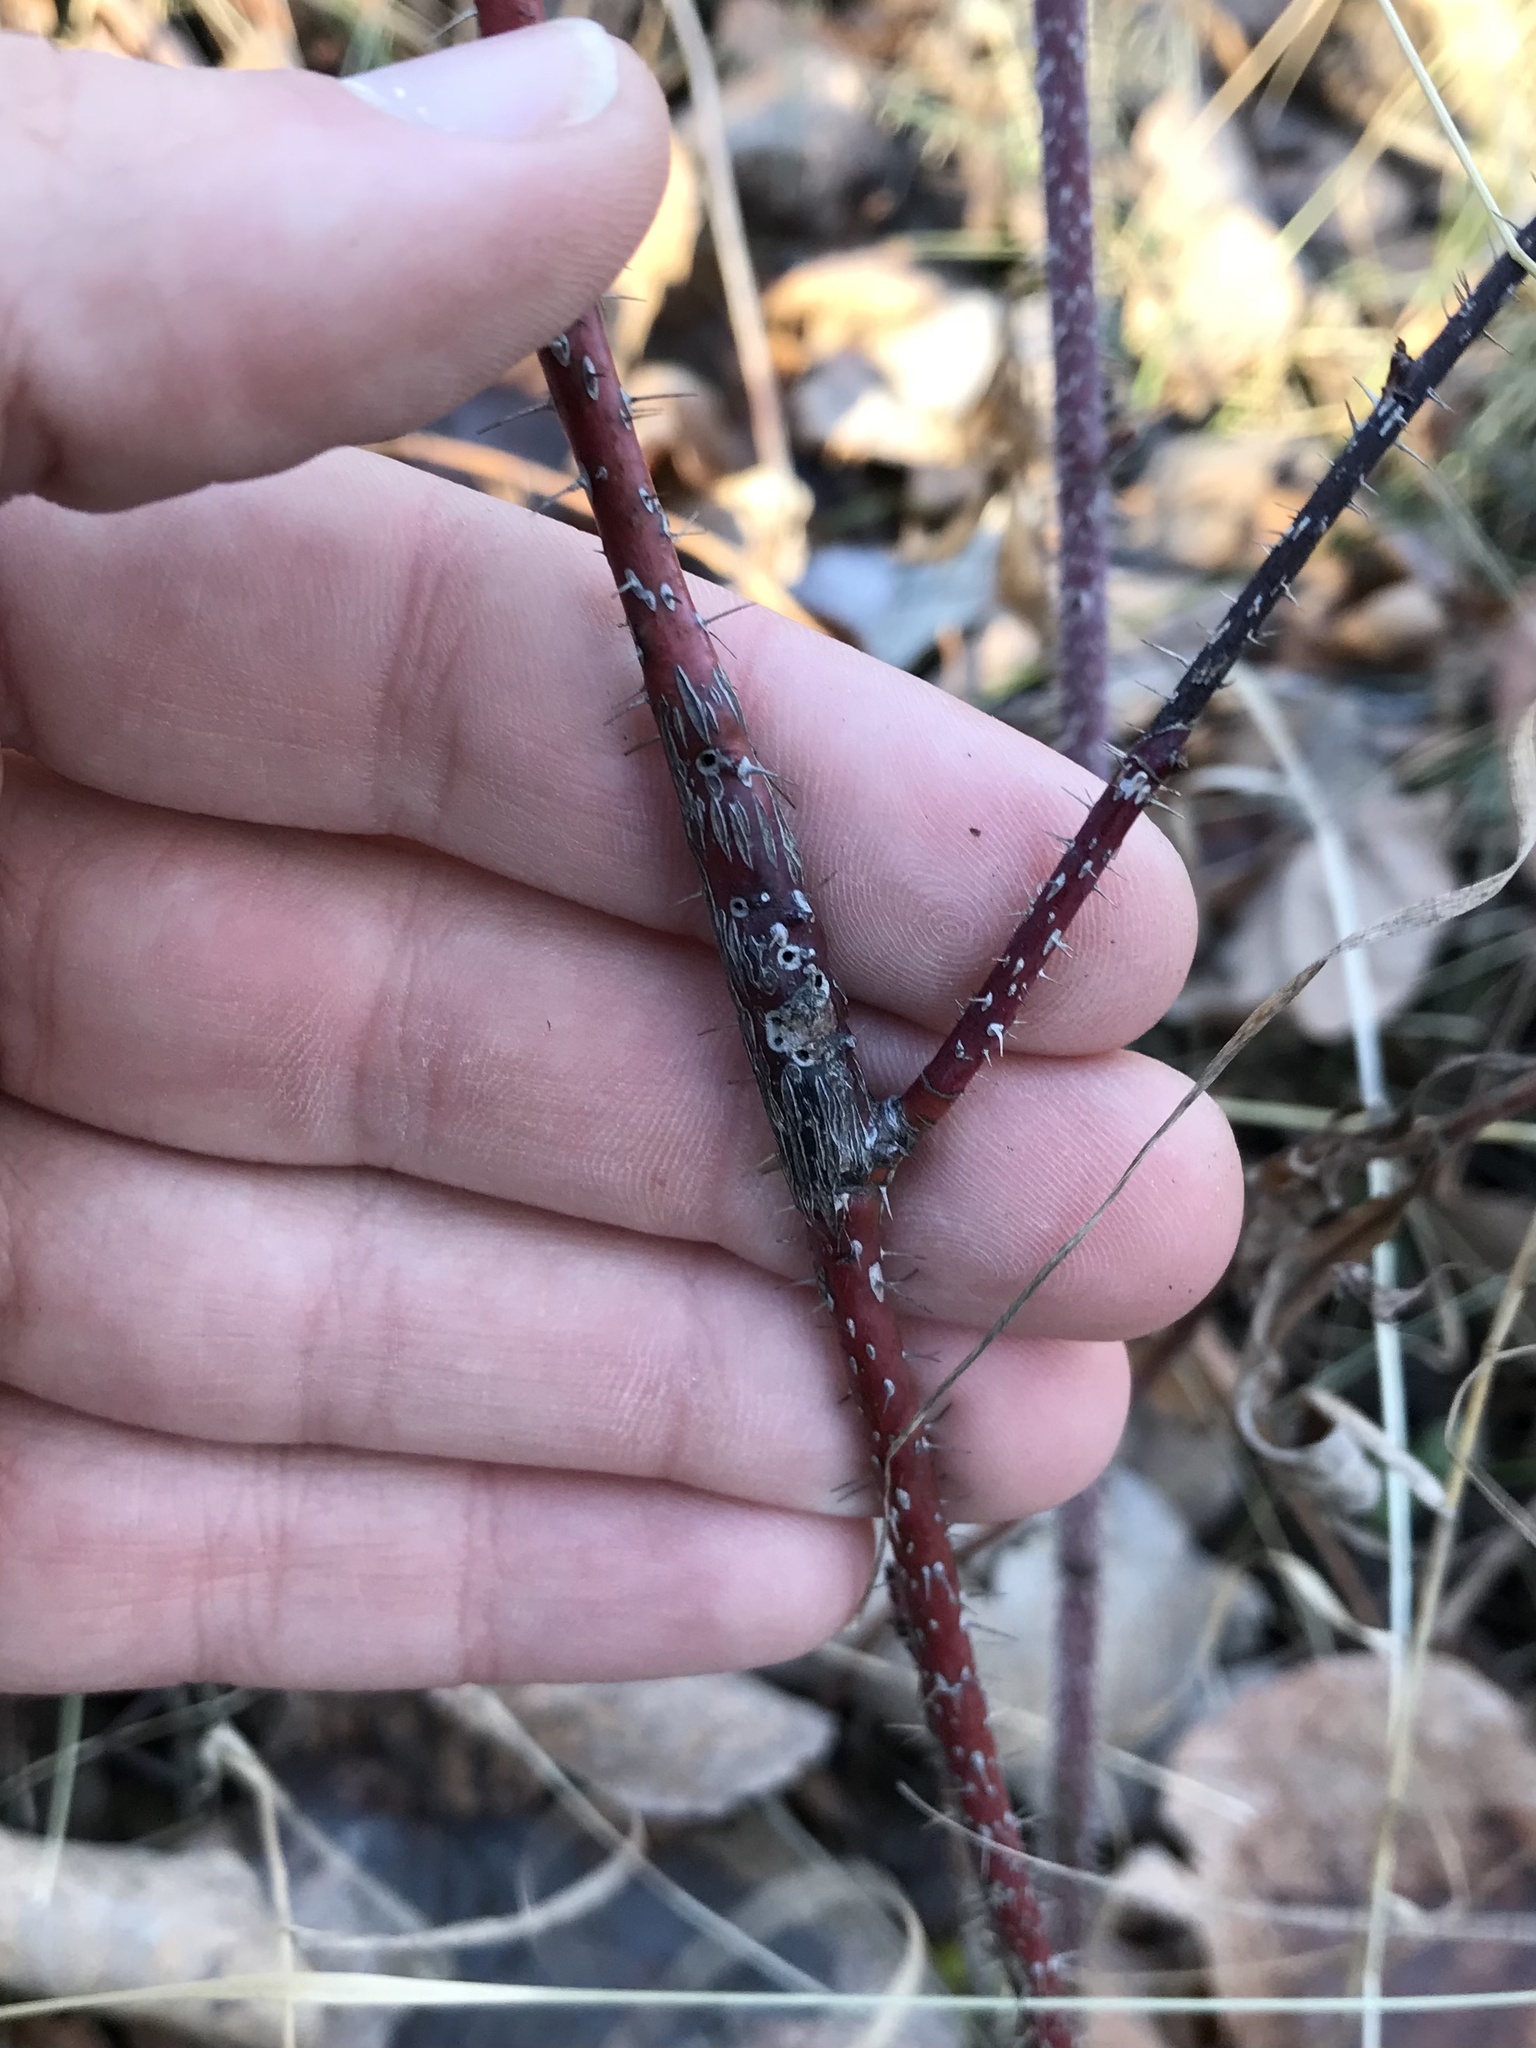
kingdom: Animalia
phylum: Arthropoda
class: Insecta
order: Hymenoptera
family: Cynipidae
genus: Diplolepis
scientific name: Diplolepis fusiformans
